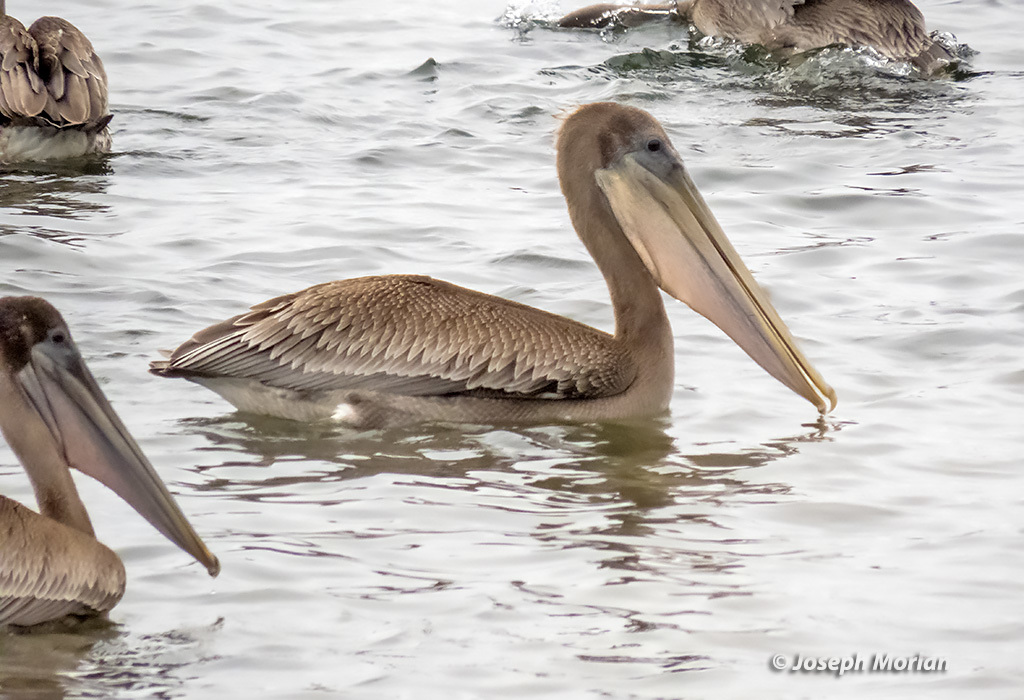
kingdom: Animalia
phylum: Chordata
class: Aves
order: Pelecaniformes
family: Pelecanidae
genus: Pelecanus
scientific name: Pelecanus occidentalis
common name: Brown pelican
